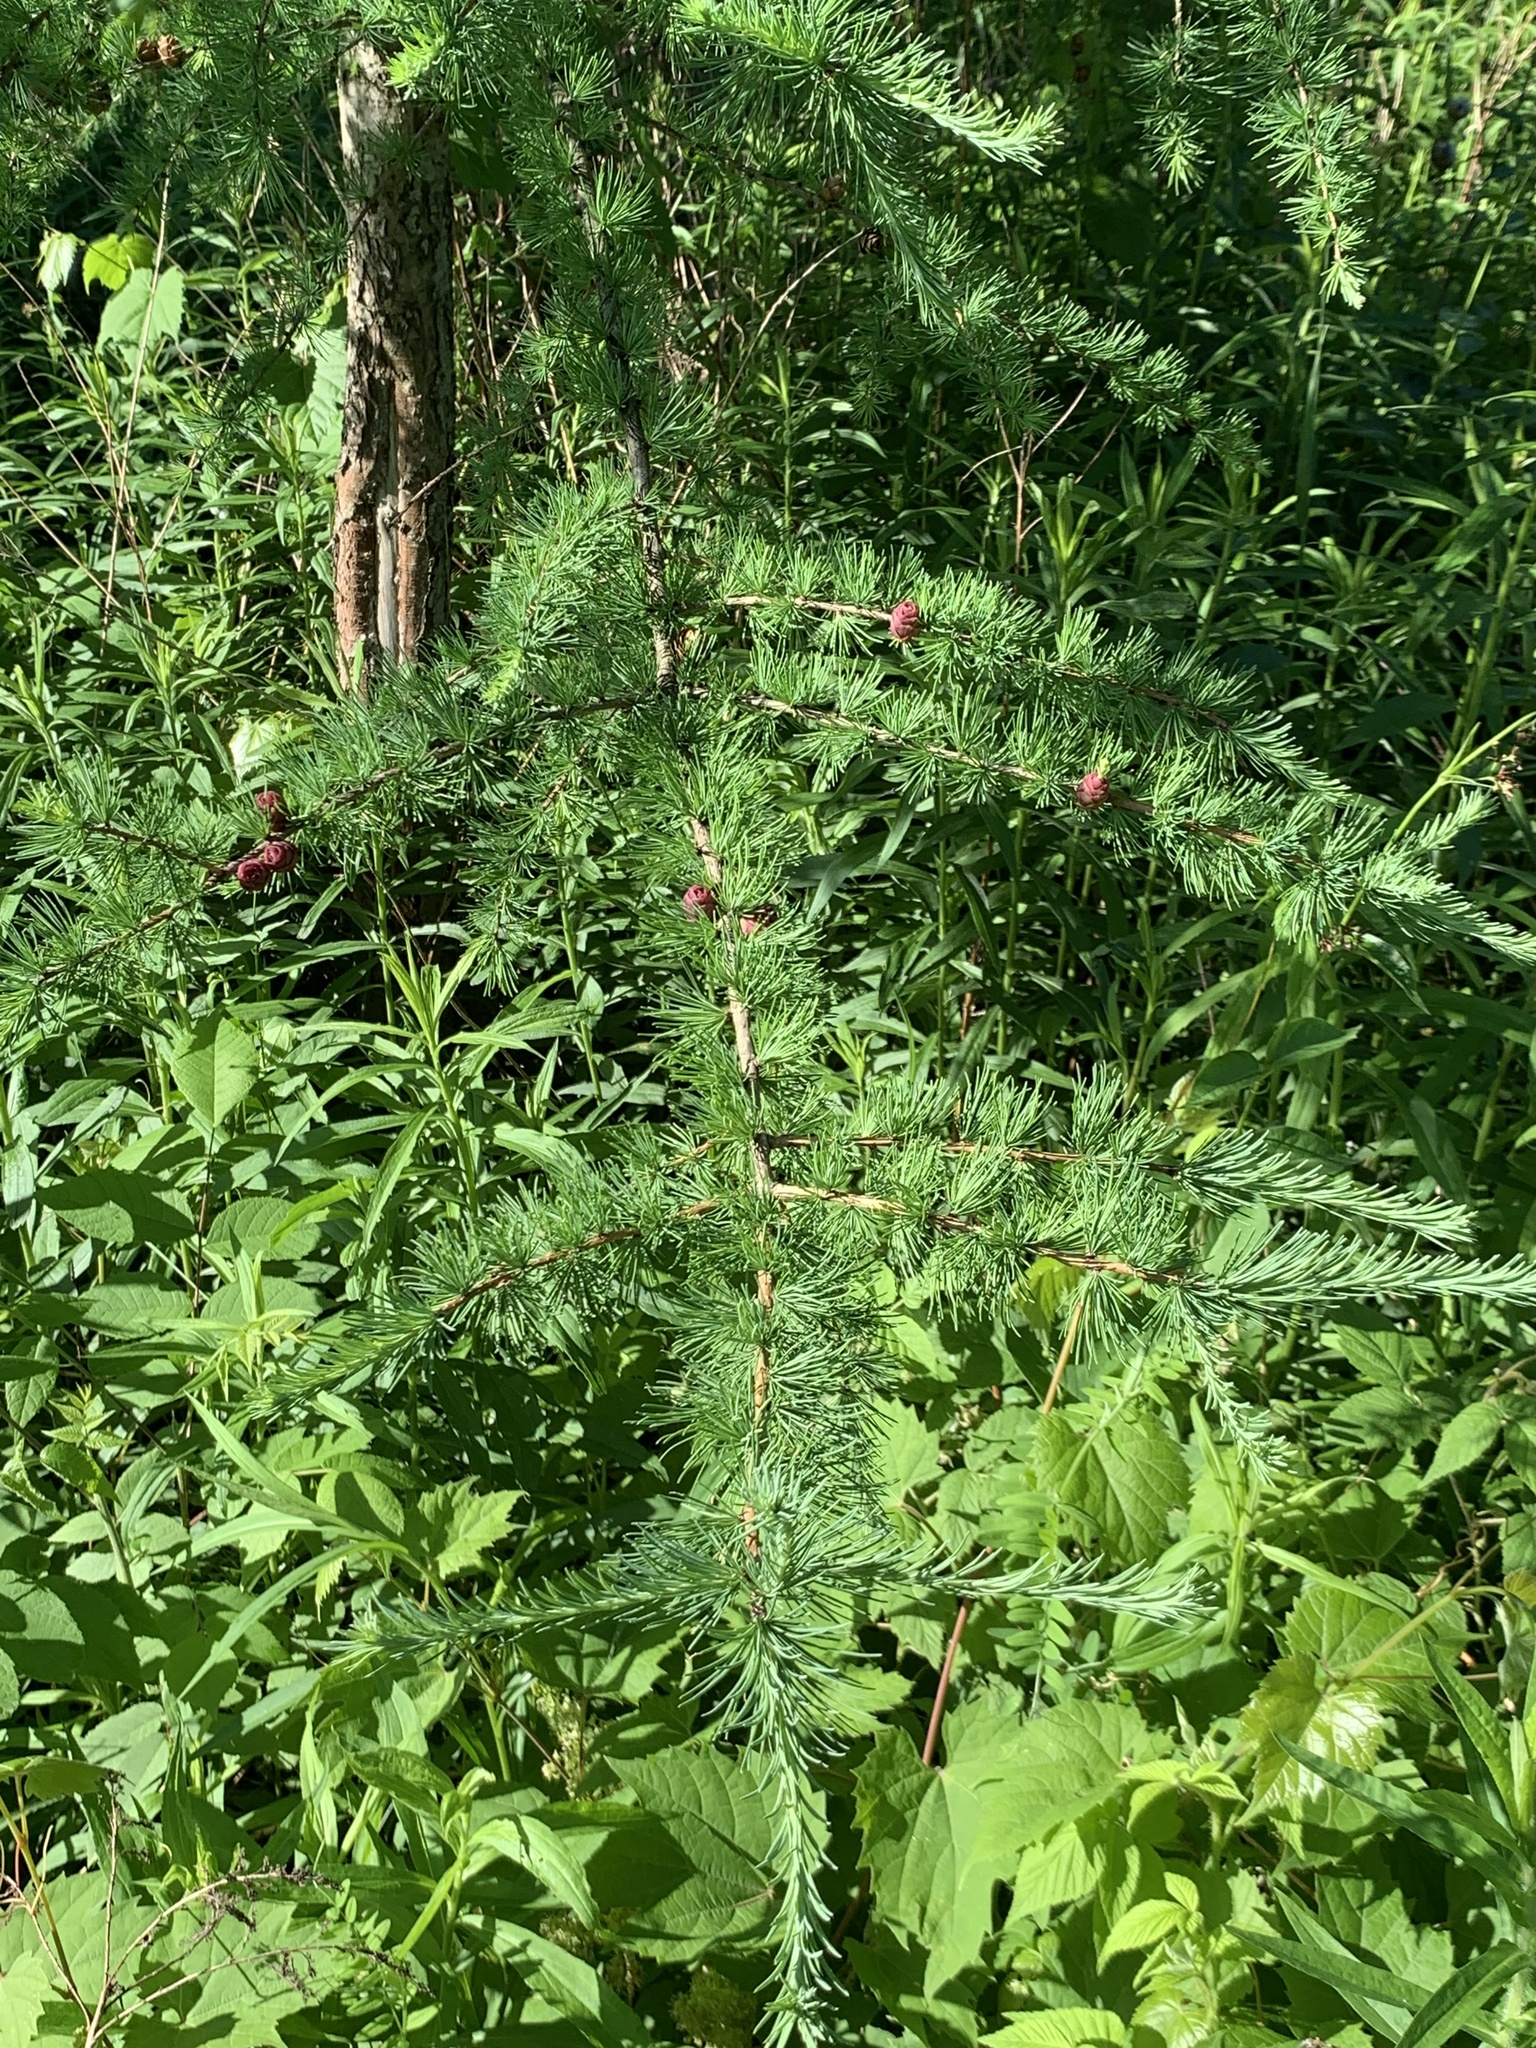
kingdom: Plantae
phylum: Tracheophyta
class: Pinopsida
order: Pinales
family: Pinaceae
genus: Larix
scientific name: Larix laricina
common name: American larch
